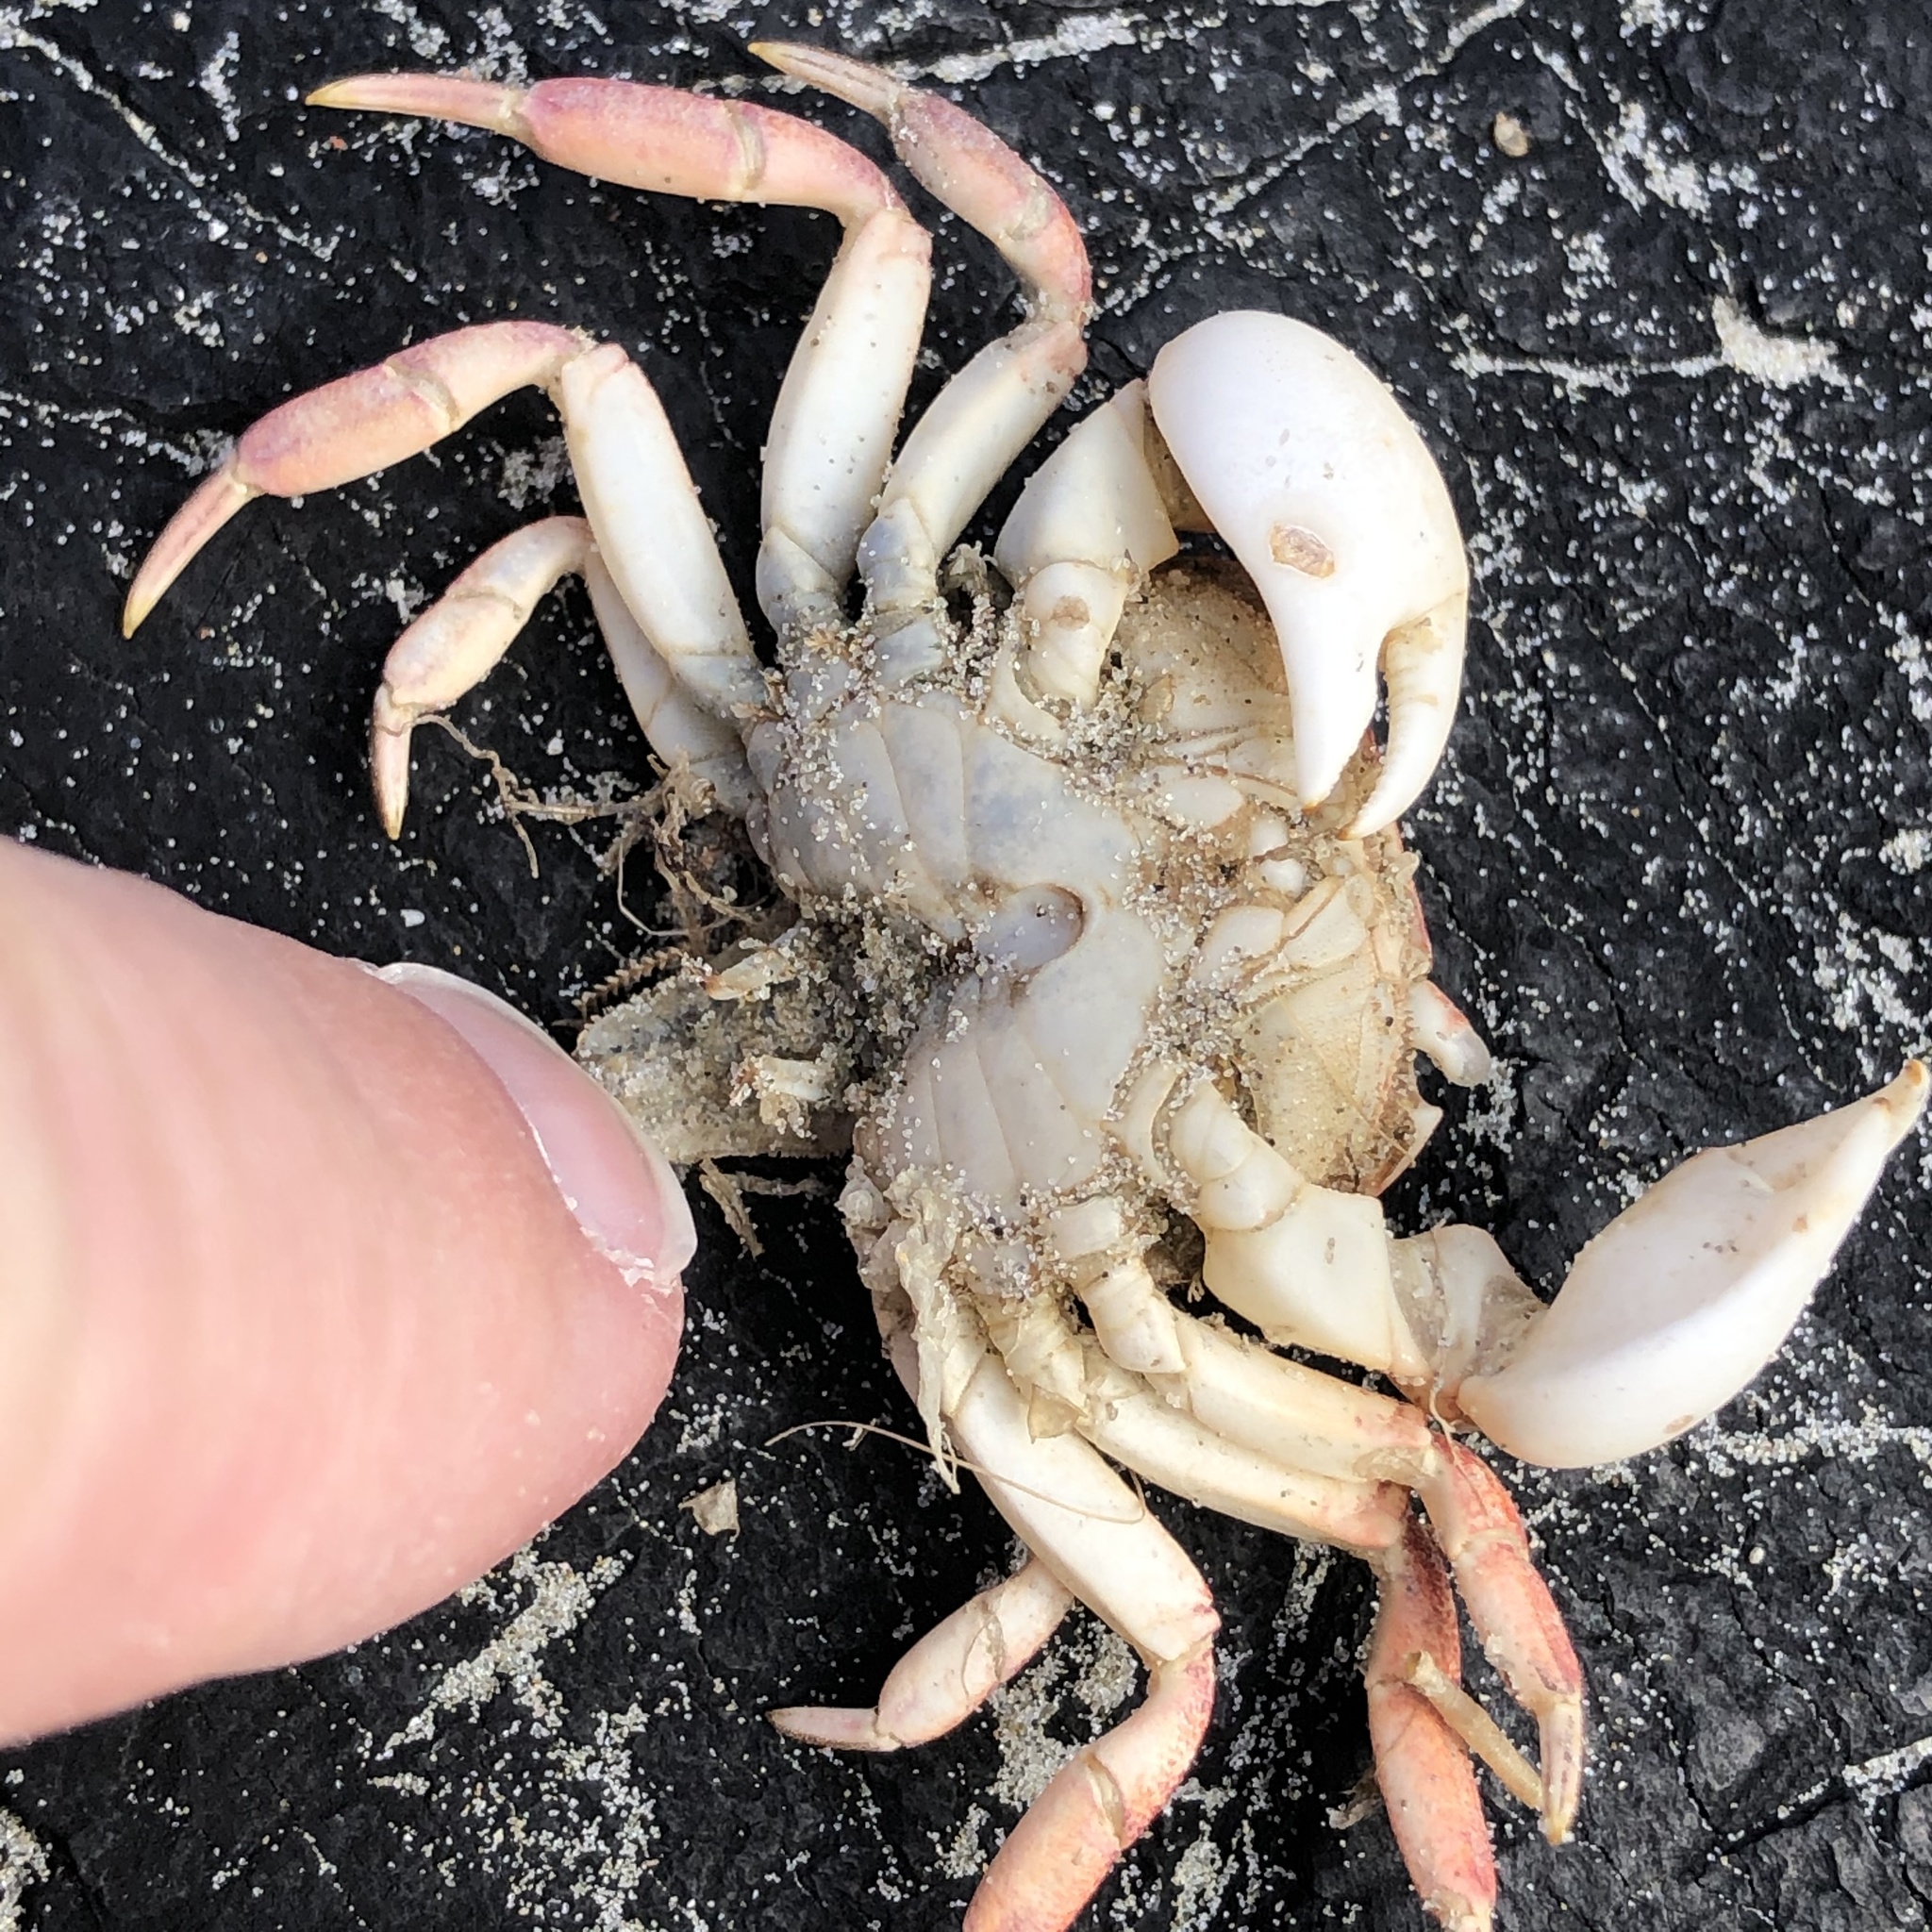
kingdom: Animalia
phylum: Arthropoda
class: Malacostraca
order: Decapoda
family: Varunidae
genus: Cyclograpsus
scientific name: Cyclograpsus lavauxi
